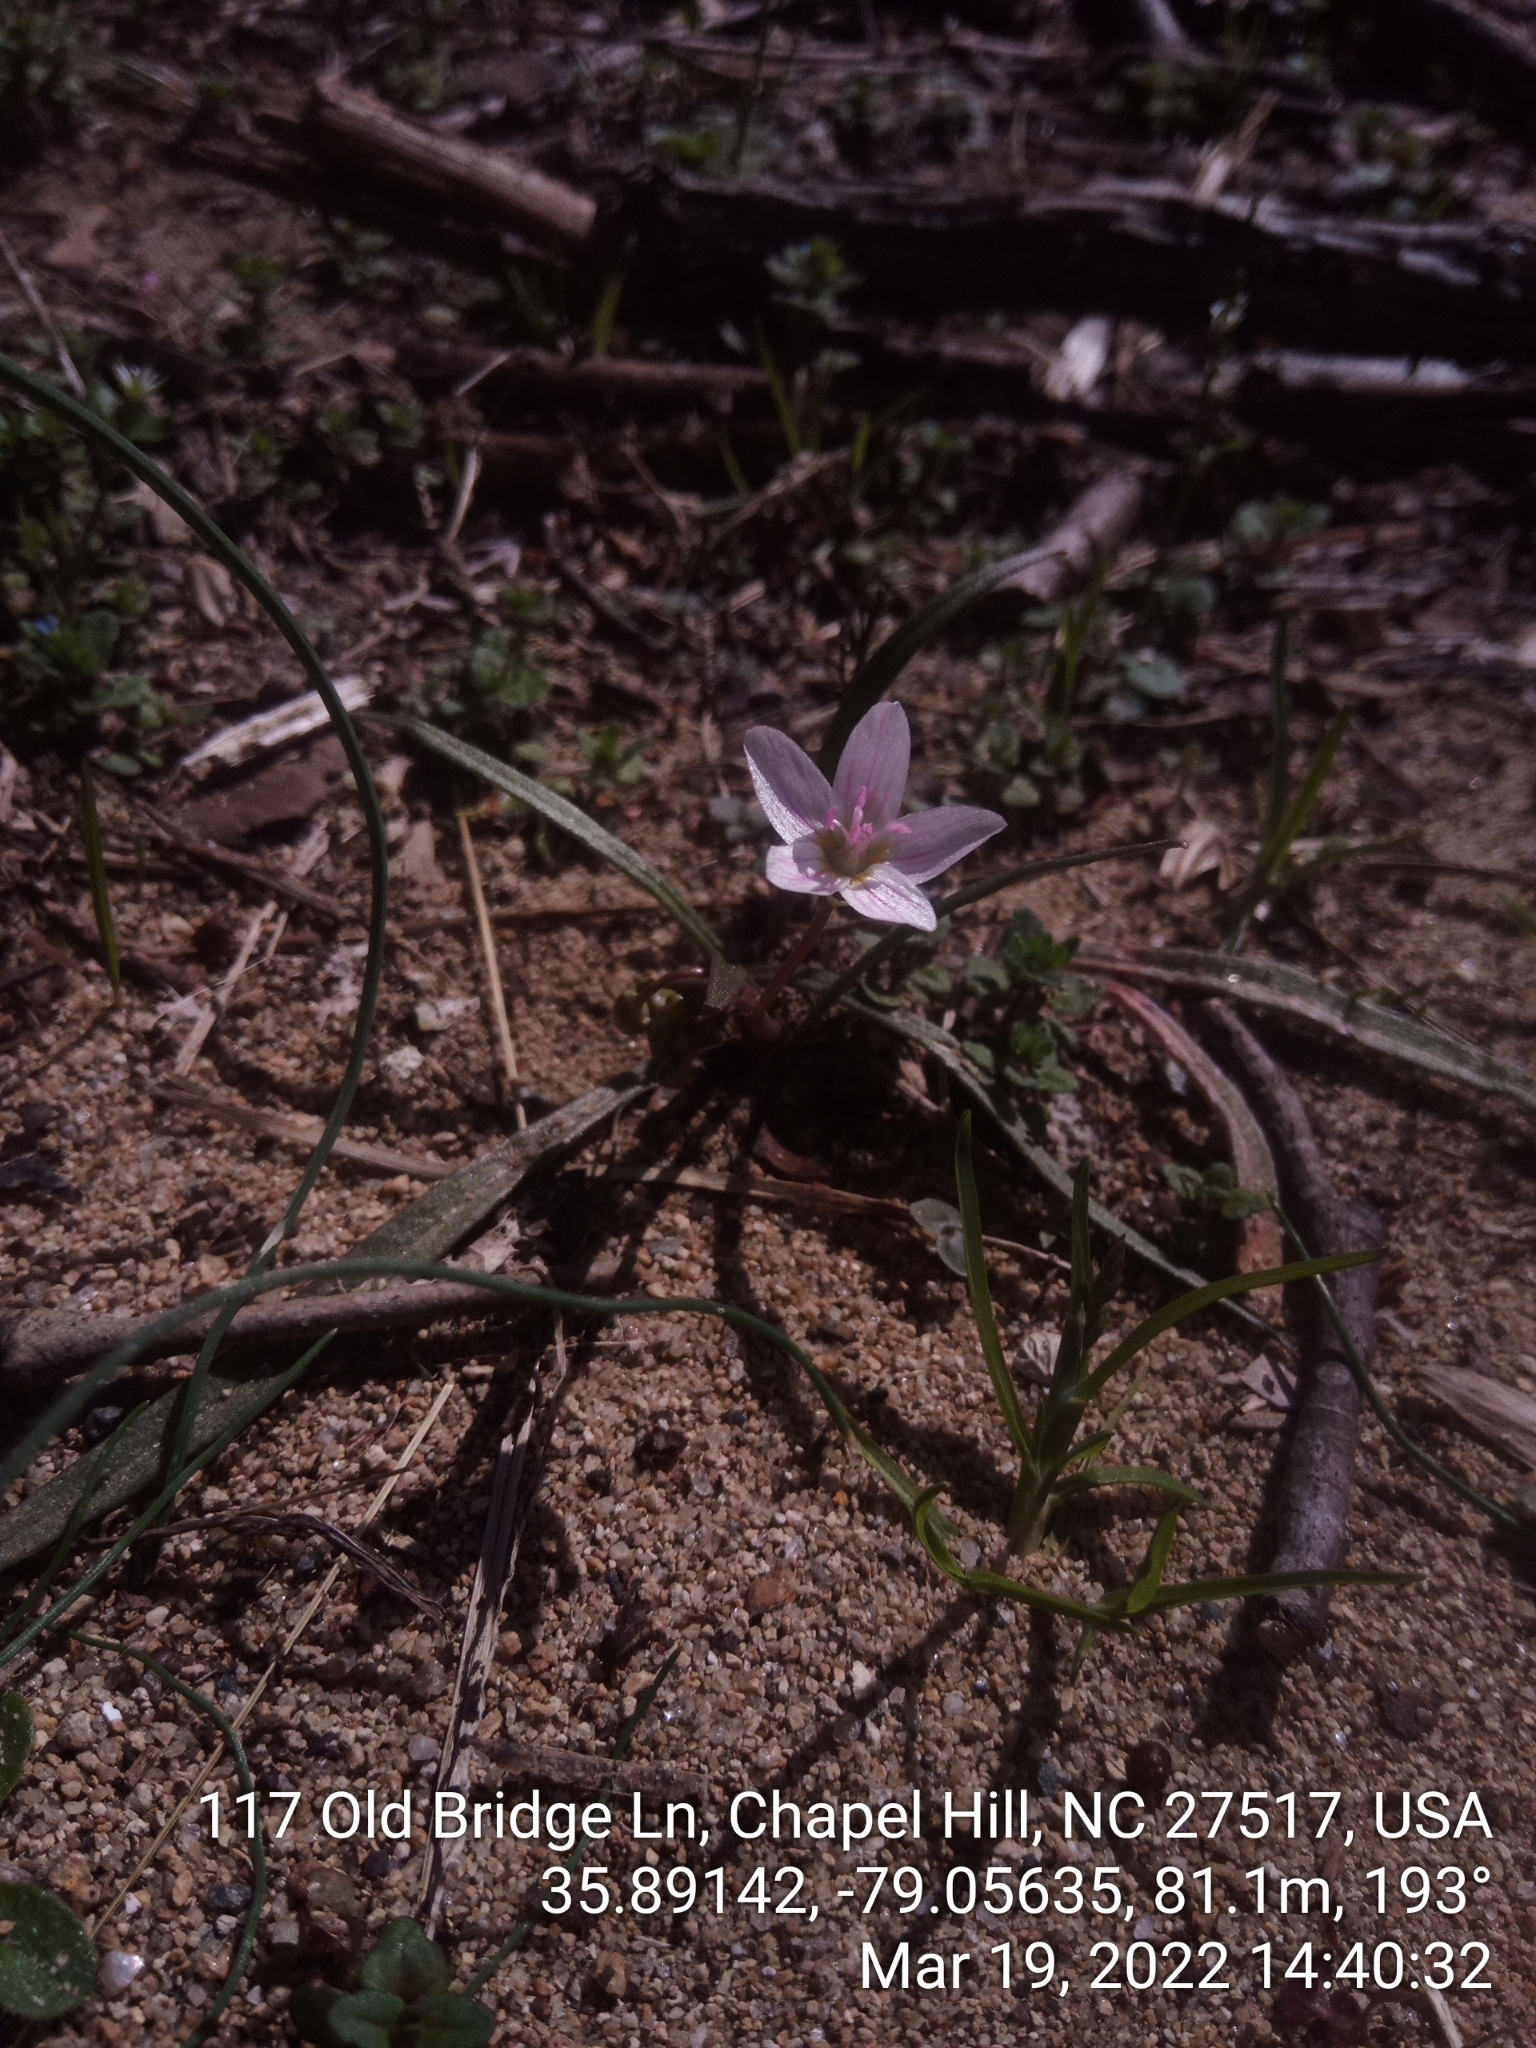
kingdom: Plantae
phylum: Tracheophyta
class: Magnoliopsida
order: Caryophyllales
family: Montiaceae
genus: Claytonia
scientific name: Claytonia virginica
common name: Virginia springbeauty
